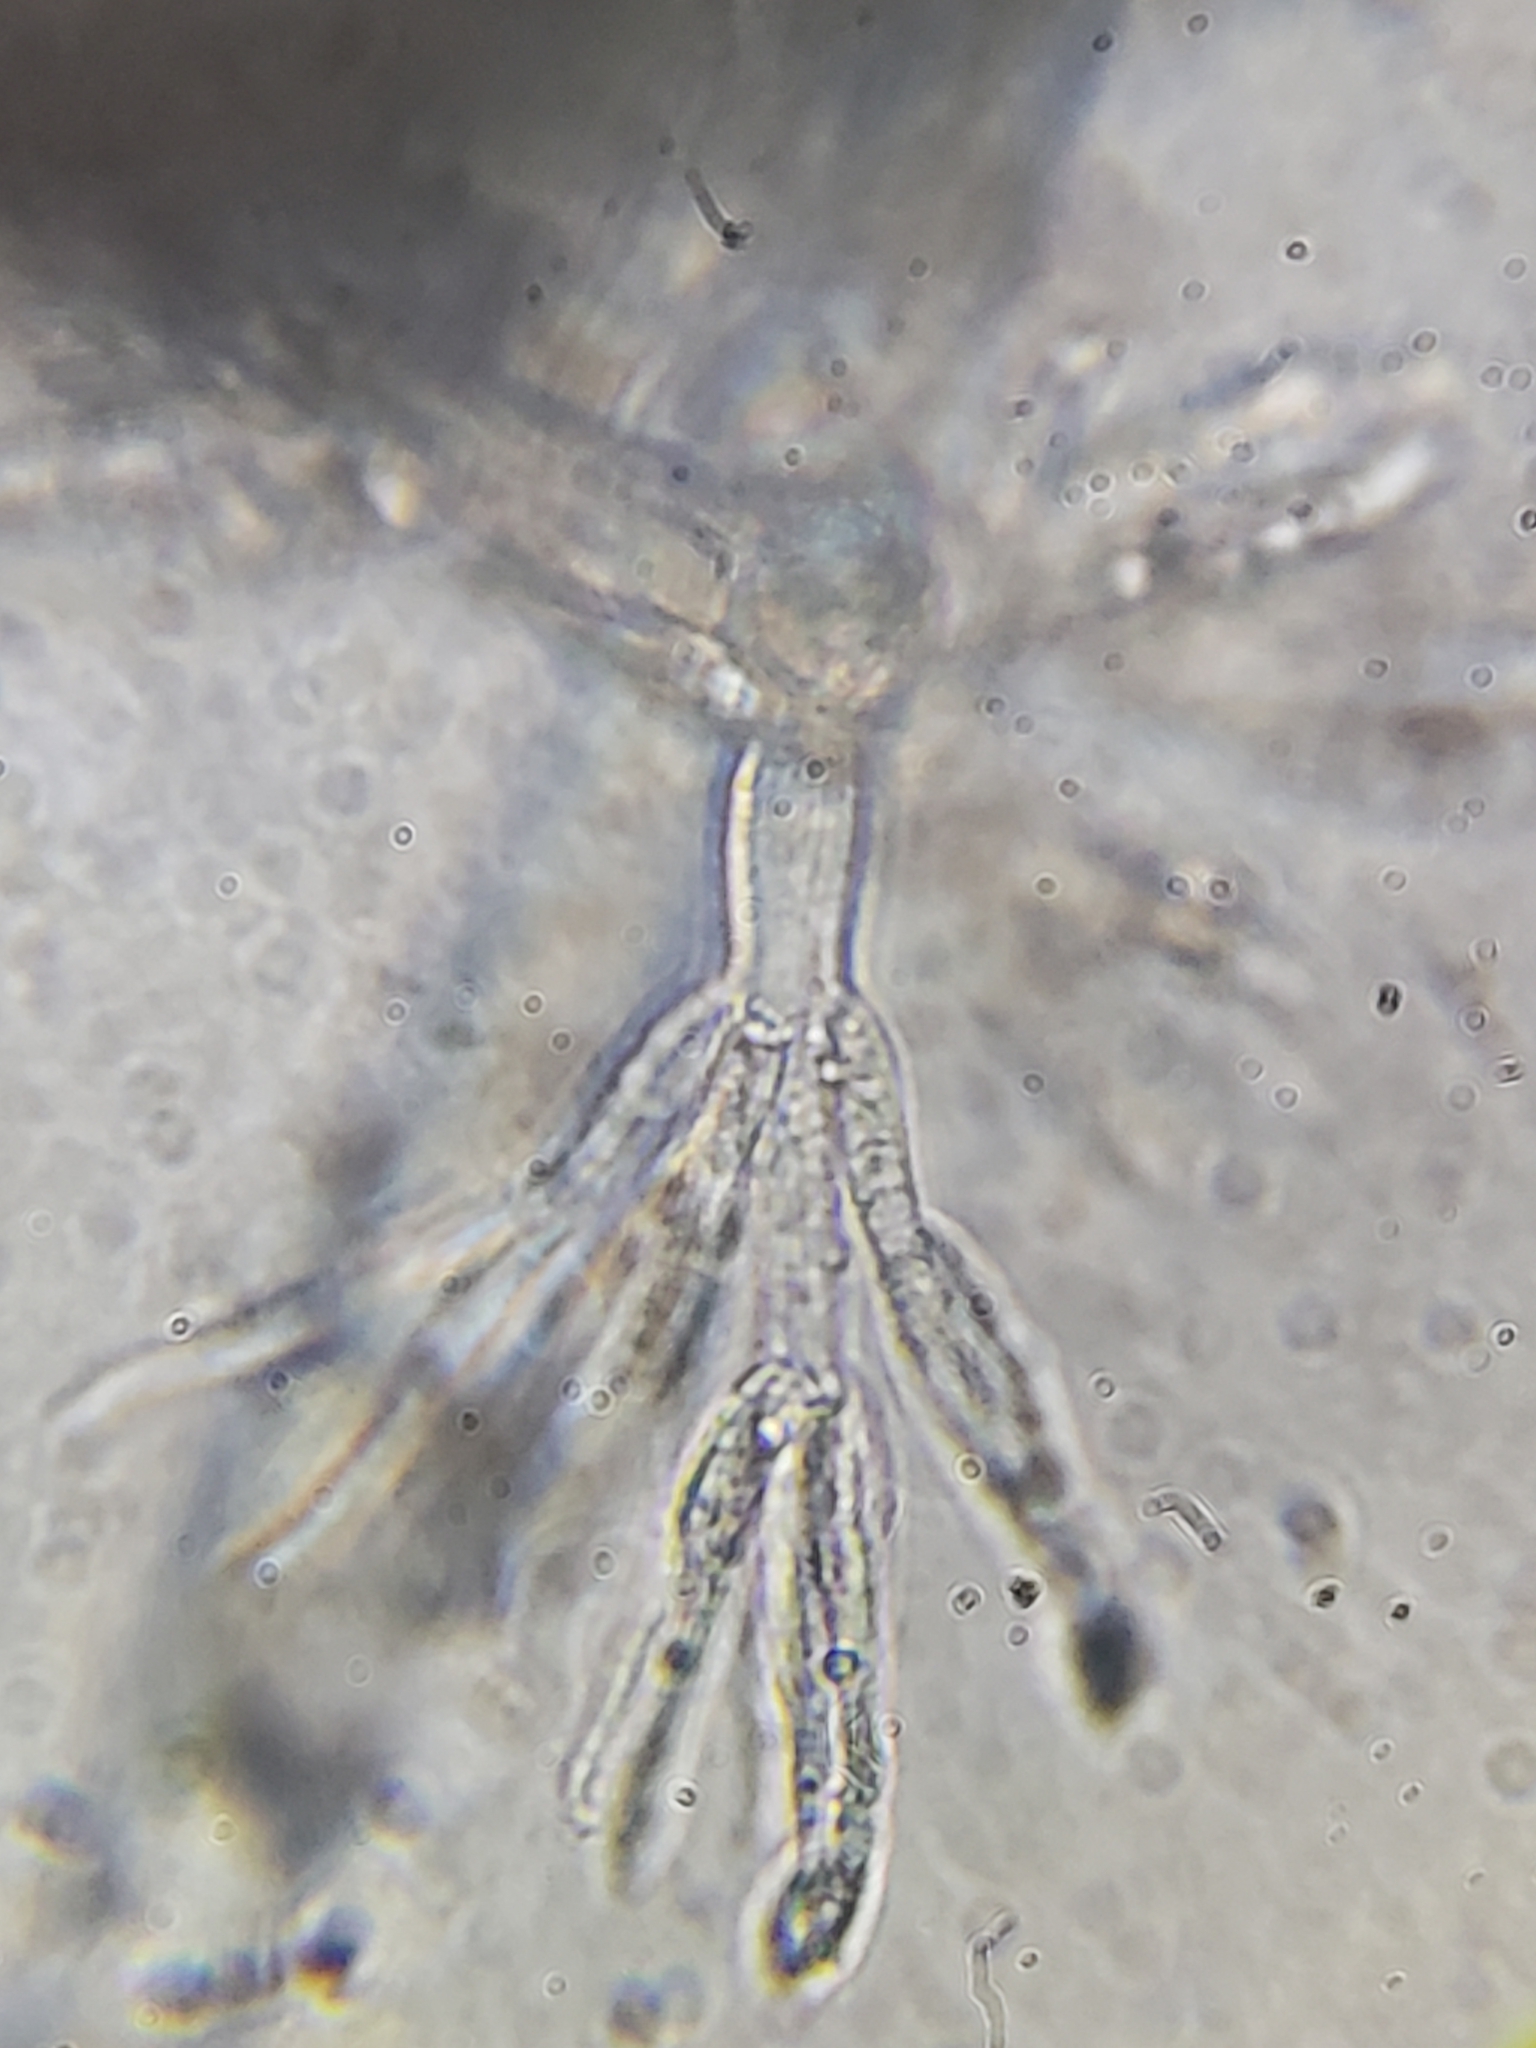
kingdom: Fungi
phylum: Ascomycota
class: Sordariomycetes
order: Hypocreales
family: Nectriaceae
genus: Mariannaea
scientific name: Mariannaea elegans
